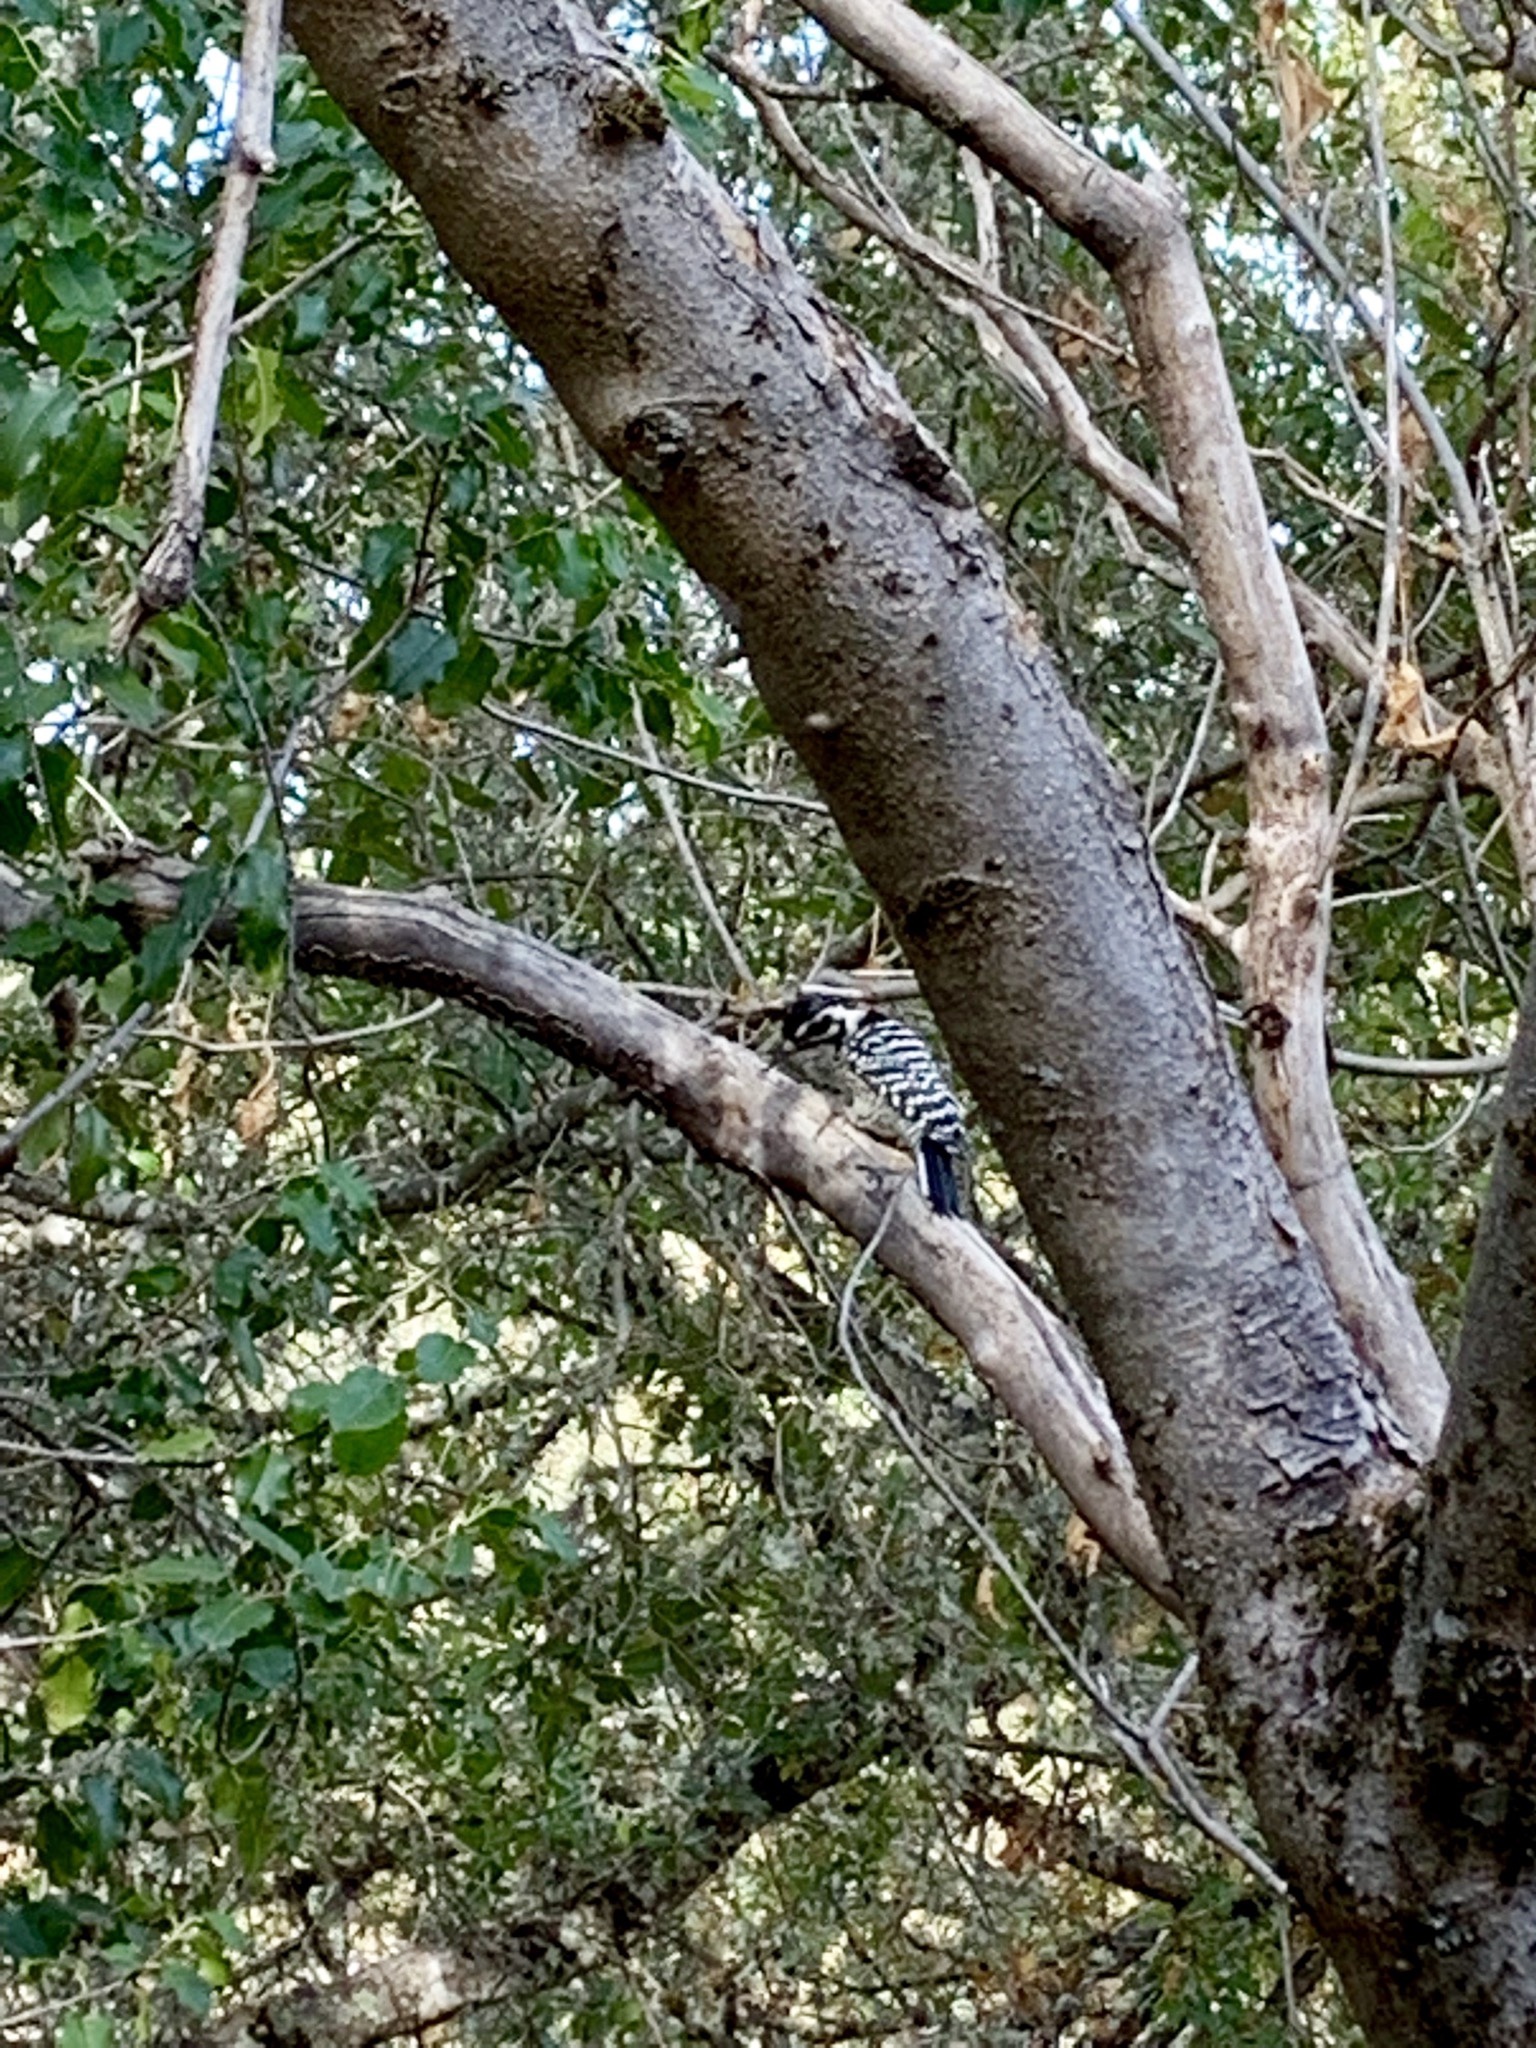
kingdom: Animalia
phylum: Chordata
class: Aves
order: Piciformes
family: Picidae
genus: Dryobates
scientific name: Dryobates nuttallii
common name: Nuttall's woodpecker
